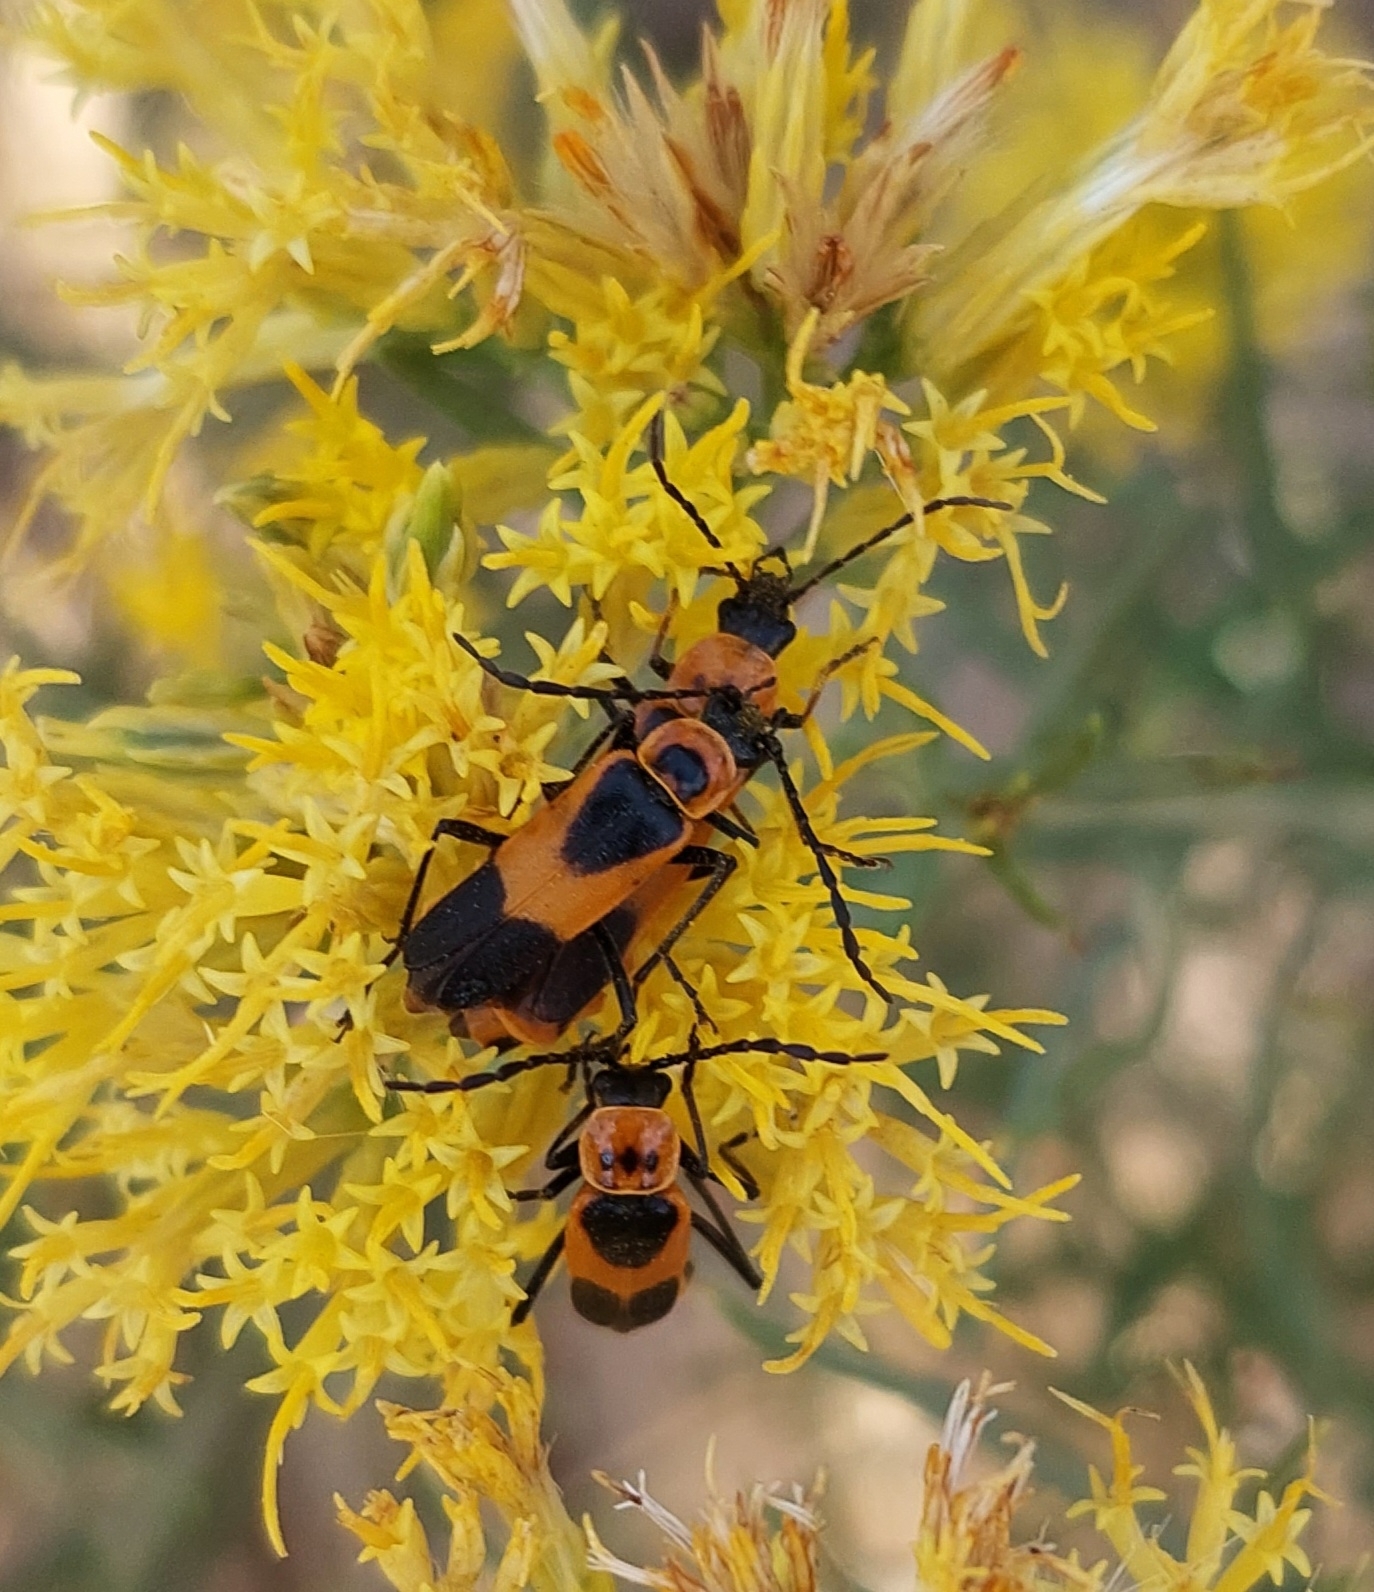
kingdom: Animalia
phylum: Arthropoda
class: Insecta
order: Coleoptera
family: Cantharidae
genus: Chauliognathus
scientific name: Chauliognathus basalis
